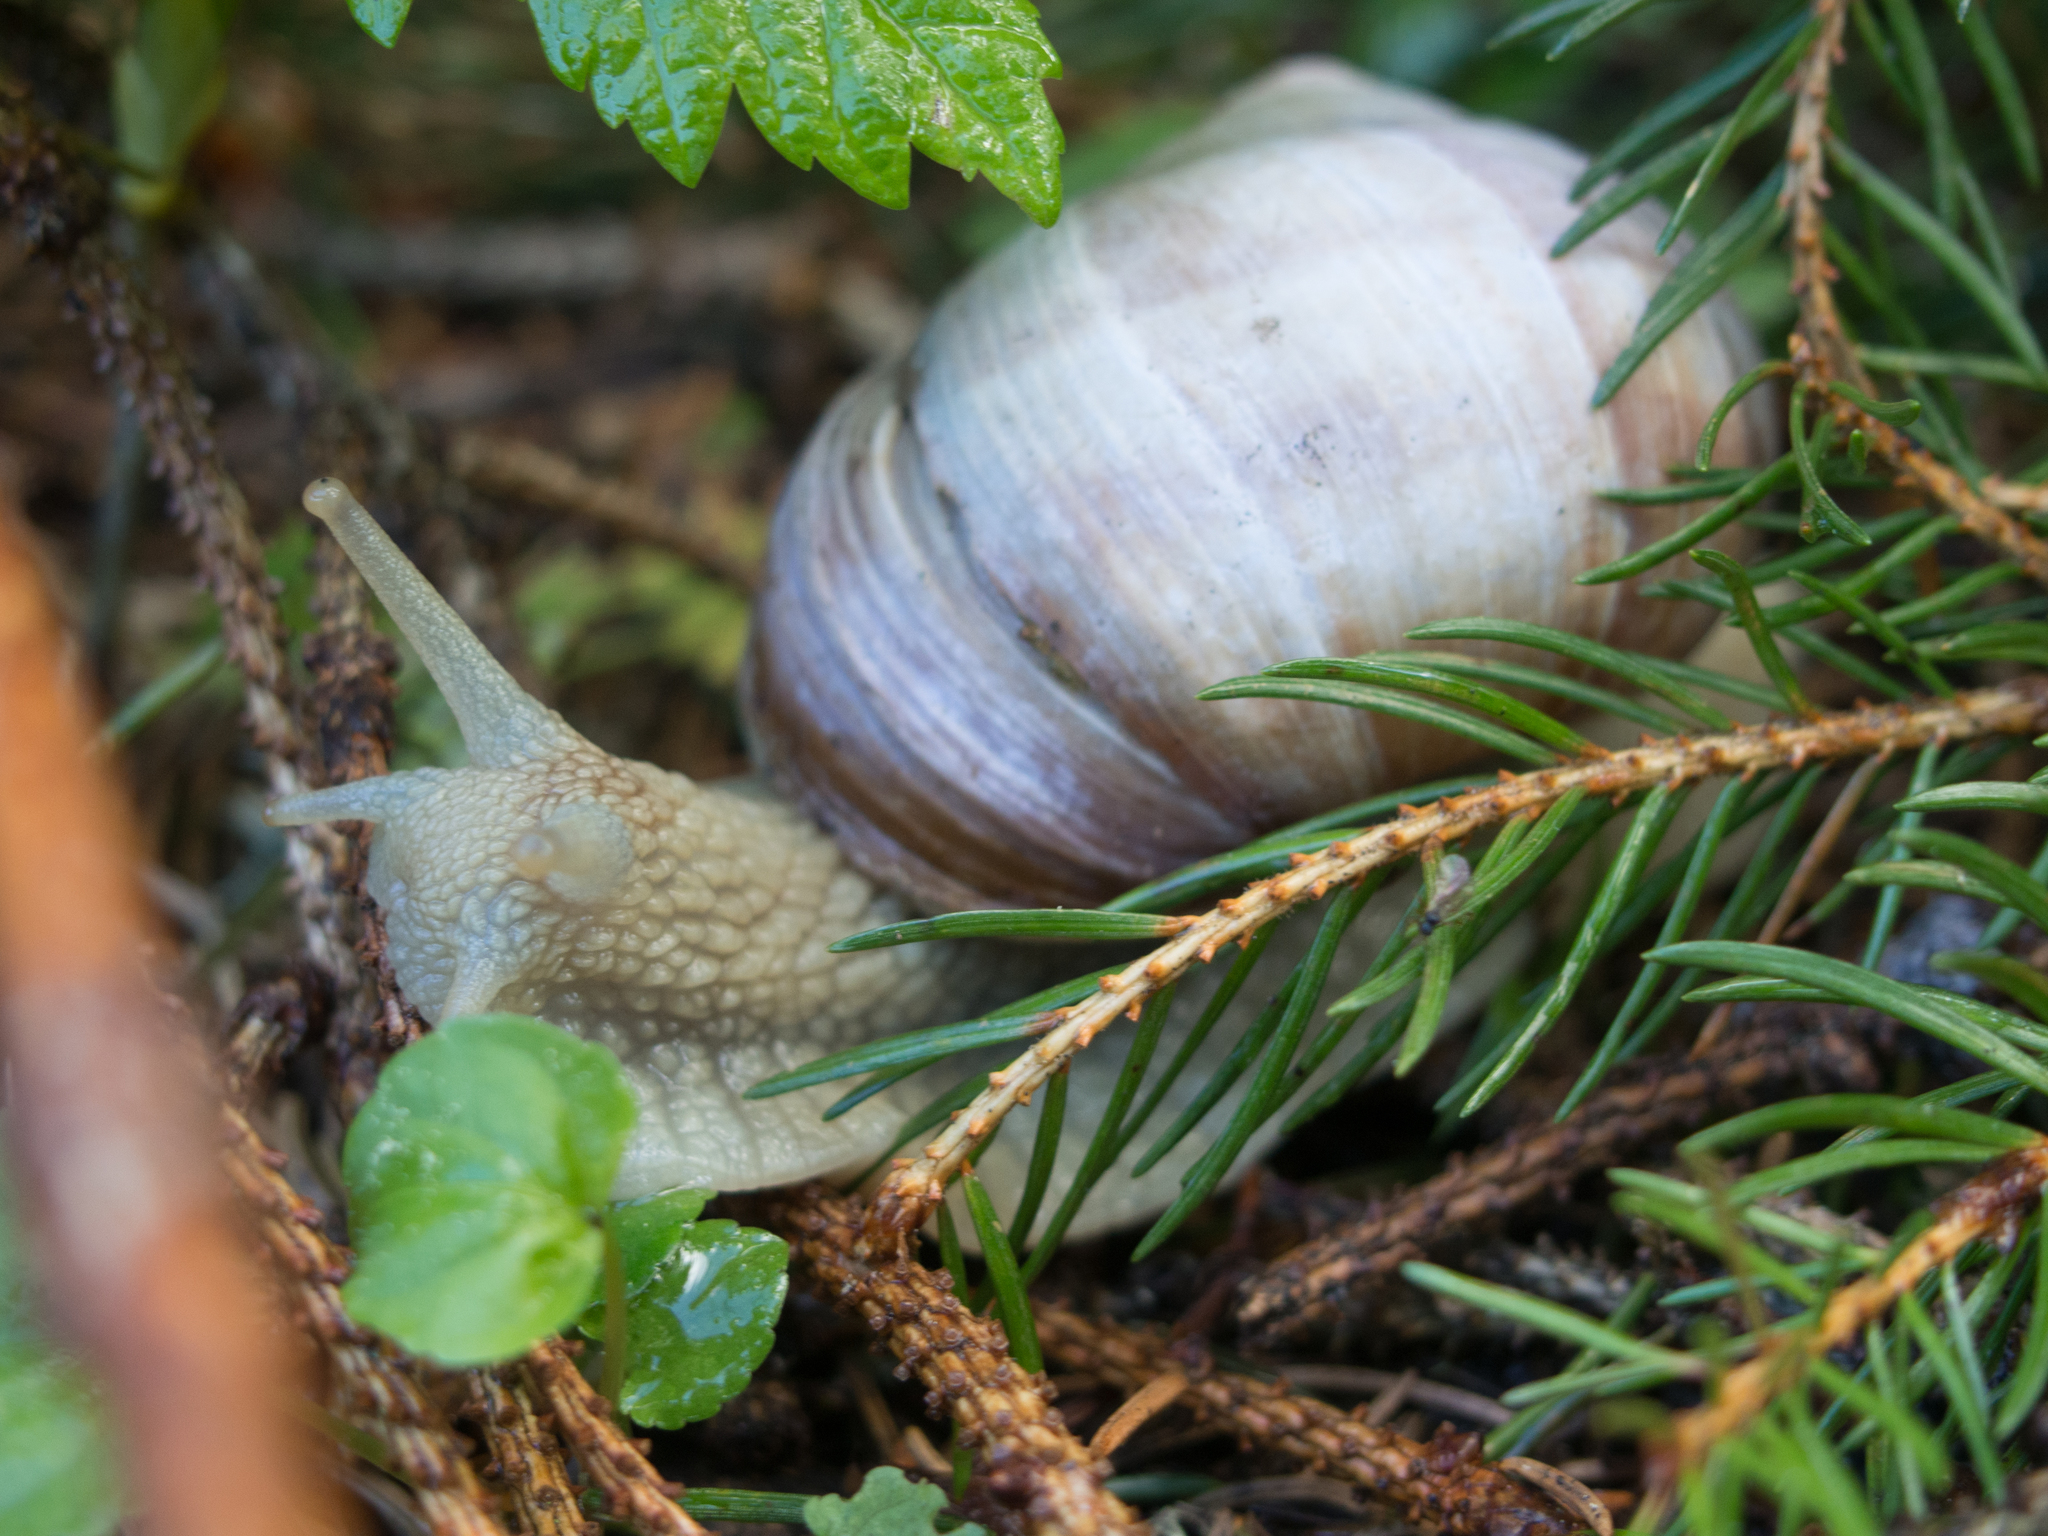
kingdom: Animalia
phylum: Mollusca
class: Gastropoda
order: Stylommatophora
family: Helicidae
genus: Helix
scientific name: Helix pomatia
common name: Roman snail
